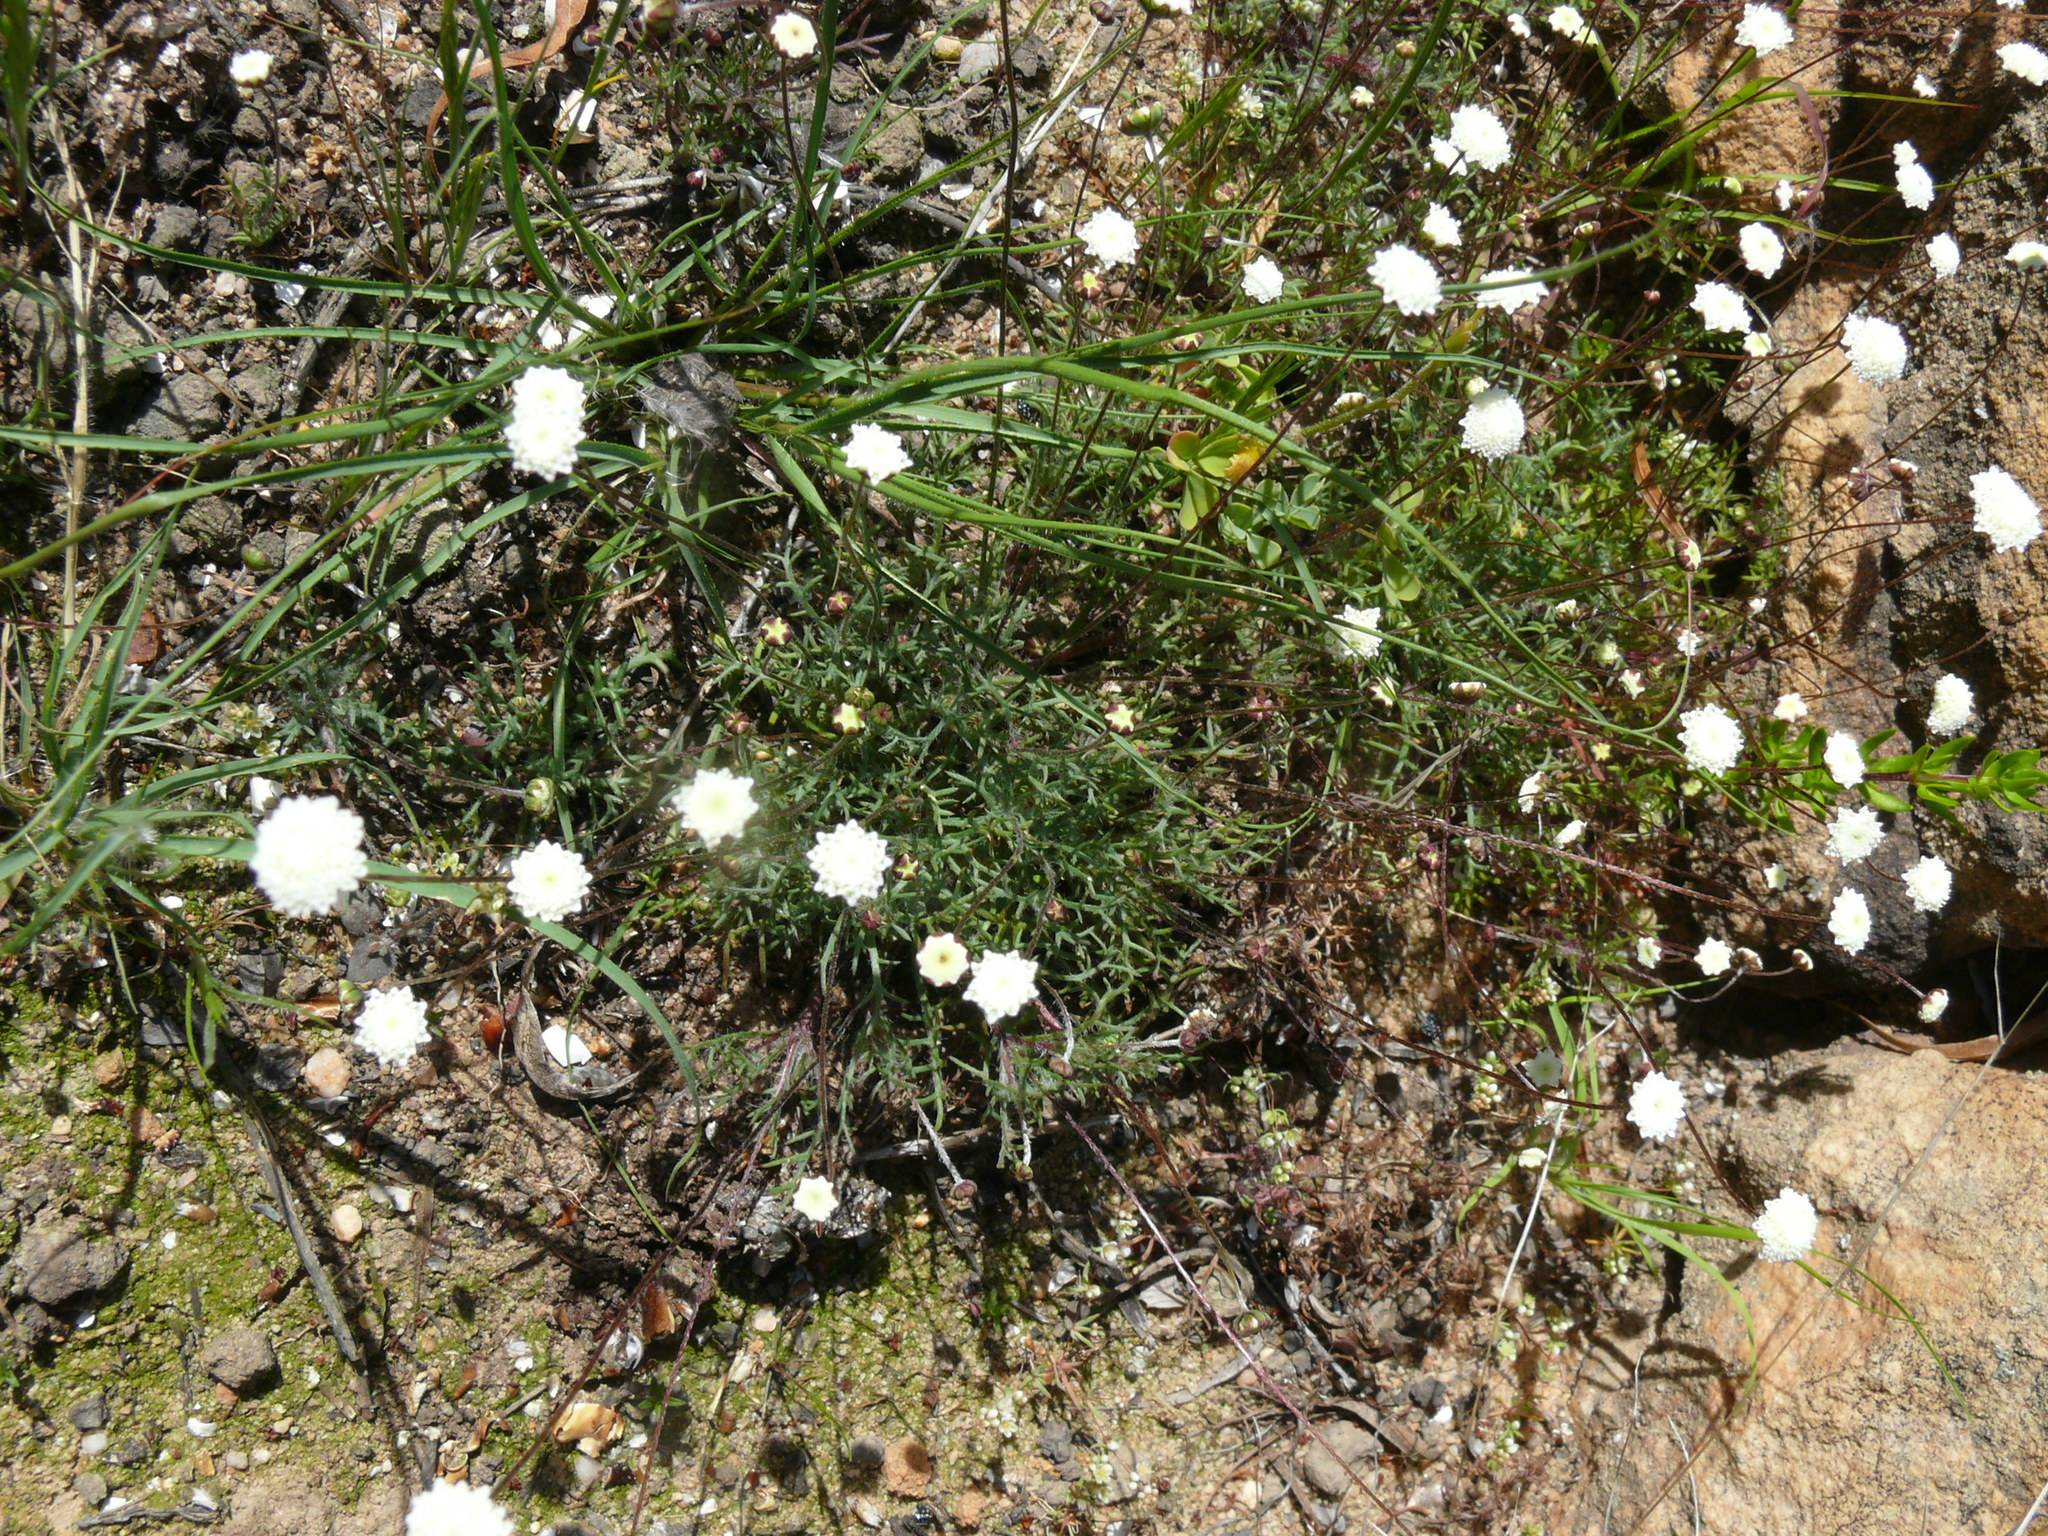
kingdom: Plantae
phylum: Tracheophyta
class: Magnoliopsida
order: Asterales
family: Asteraceae
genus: Cotula
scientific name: Cotula nudicaulis
